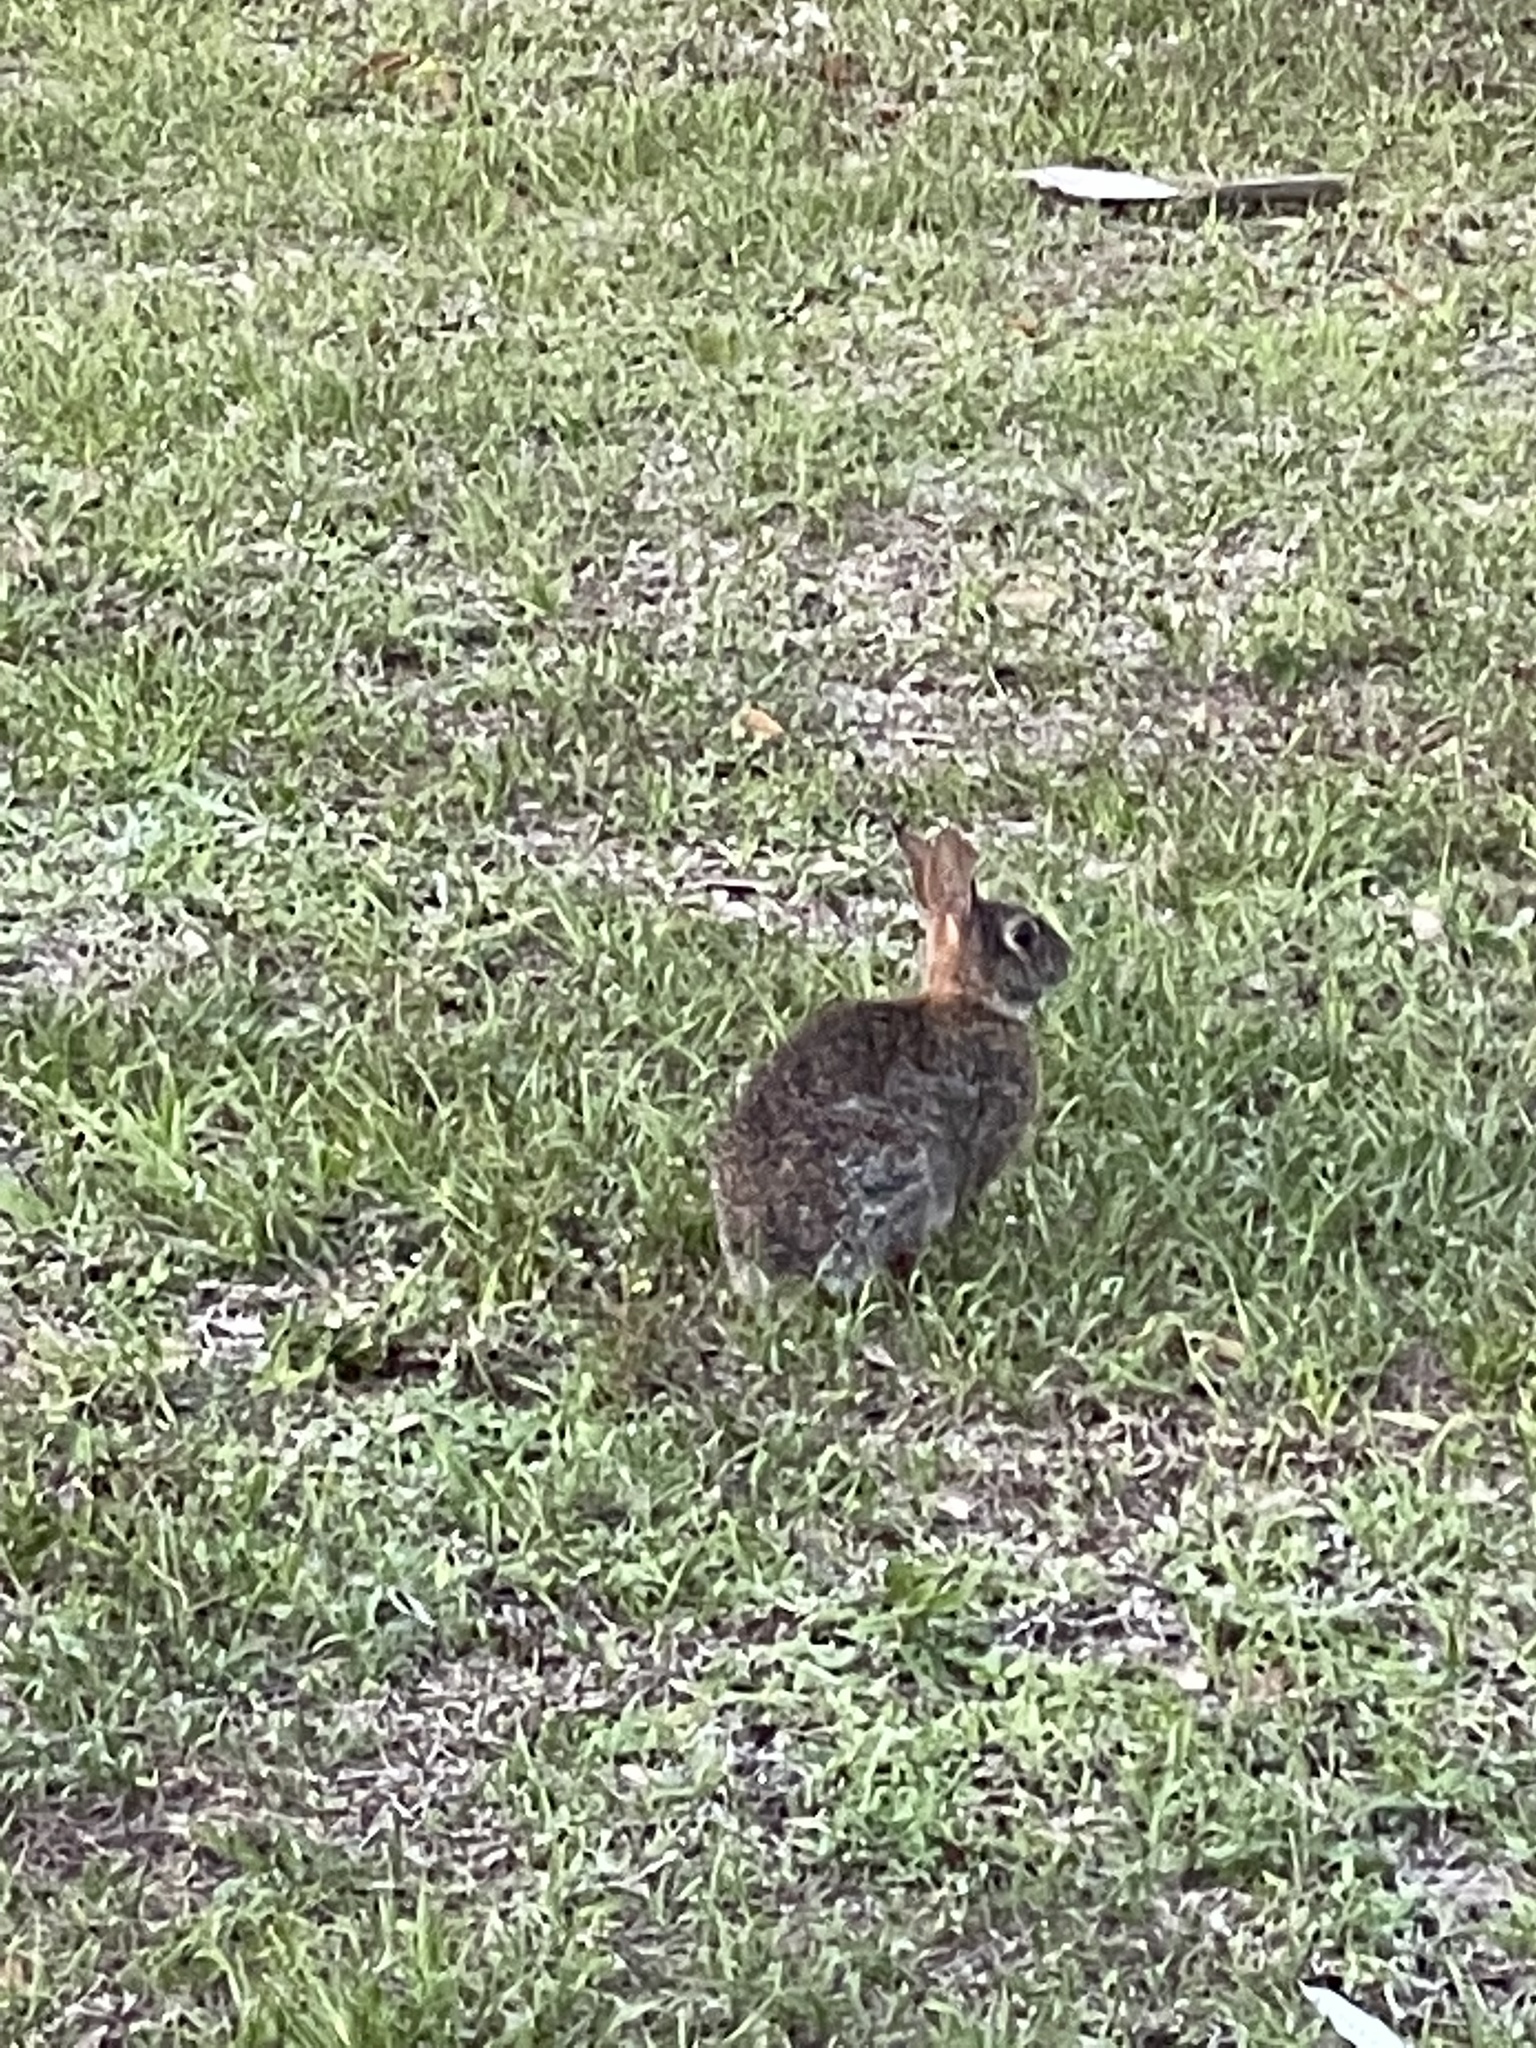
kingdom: Animalia
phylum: Chordata
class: Mammalia
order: Lagomorpha
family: Leporidae
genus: Sylvilagus
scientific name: Sylvilagus floridanus
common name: Eastern cottontail
